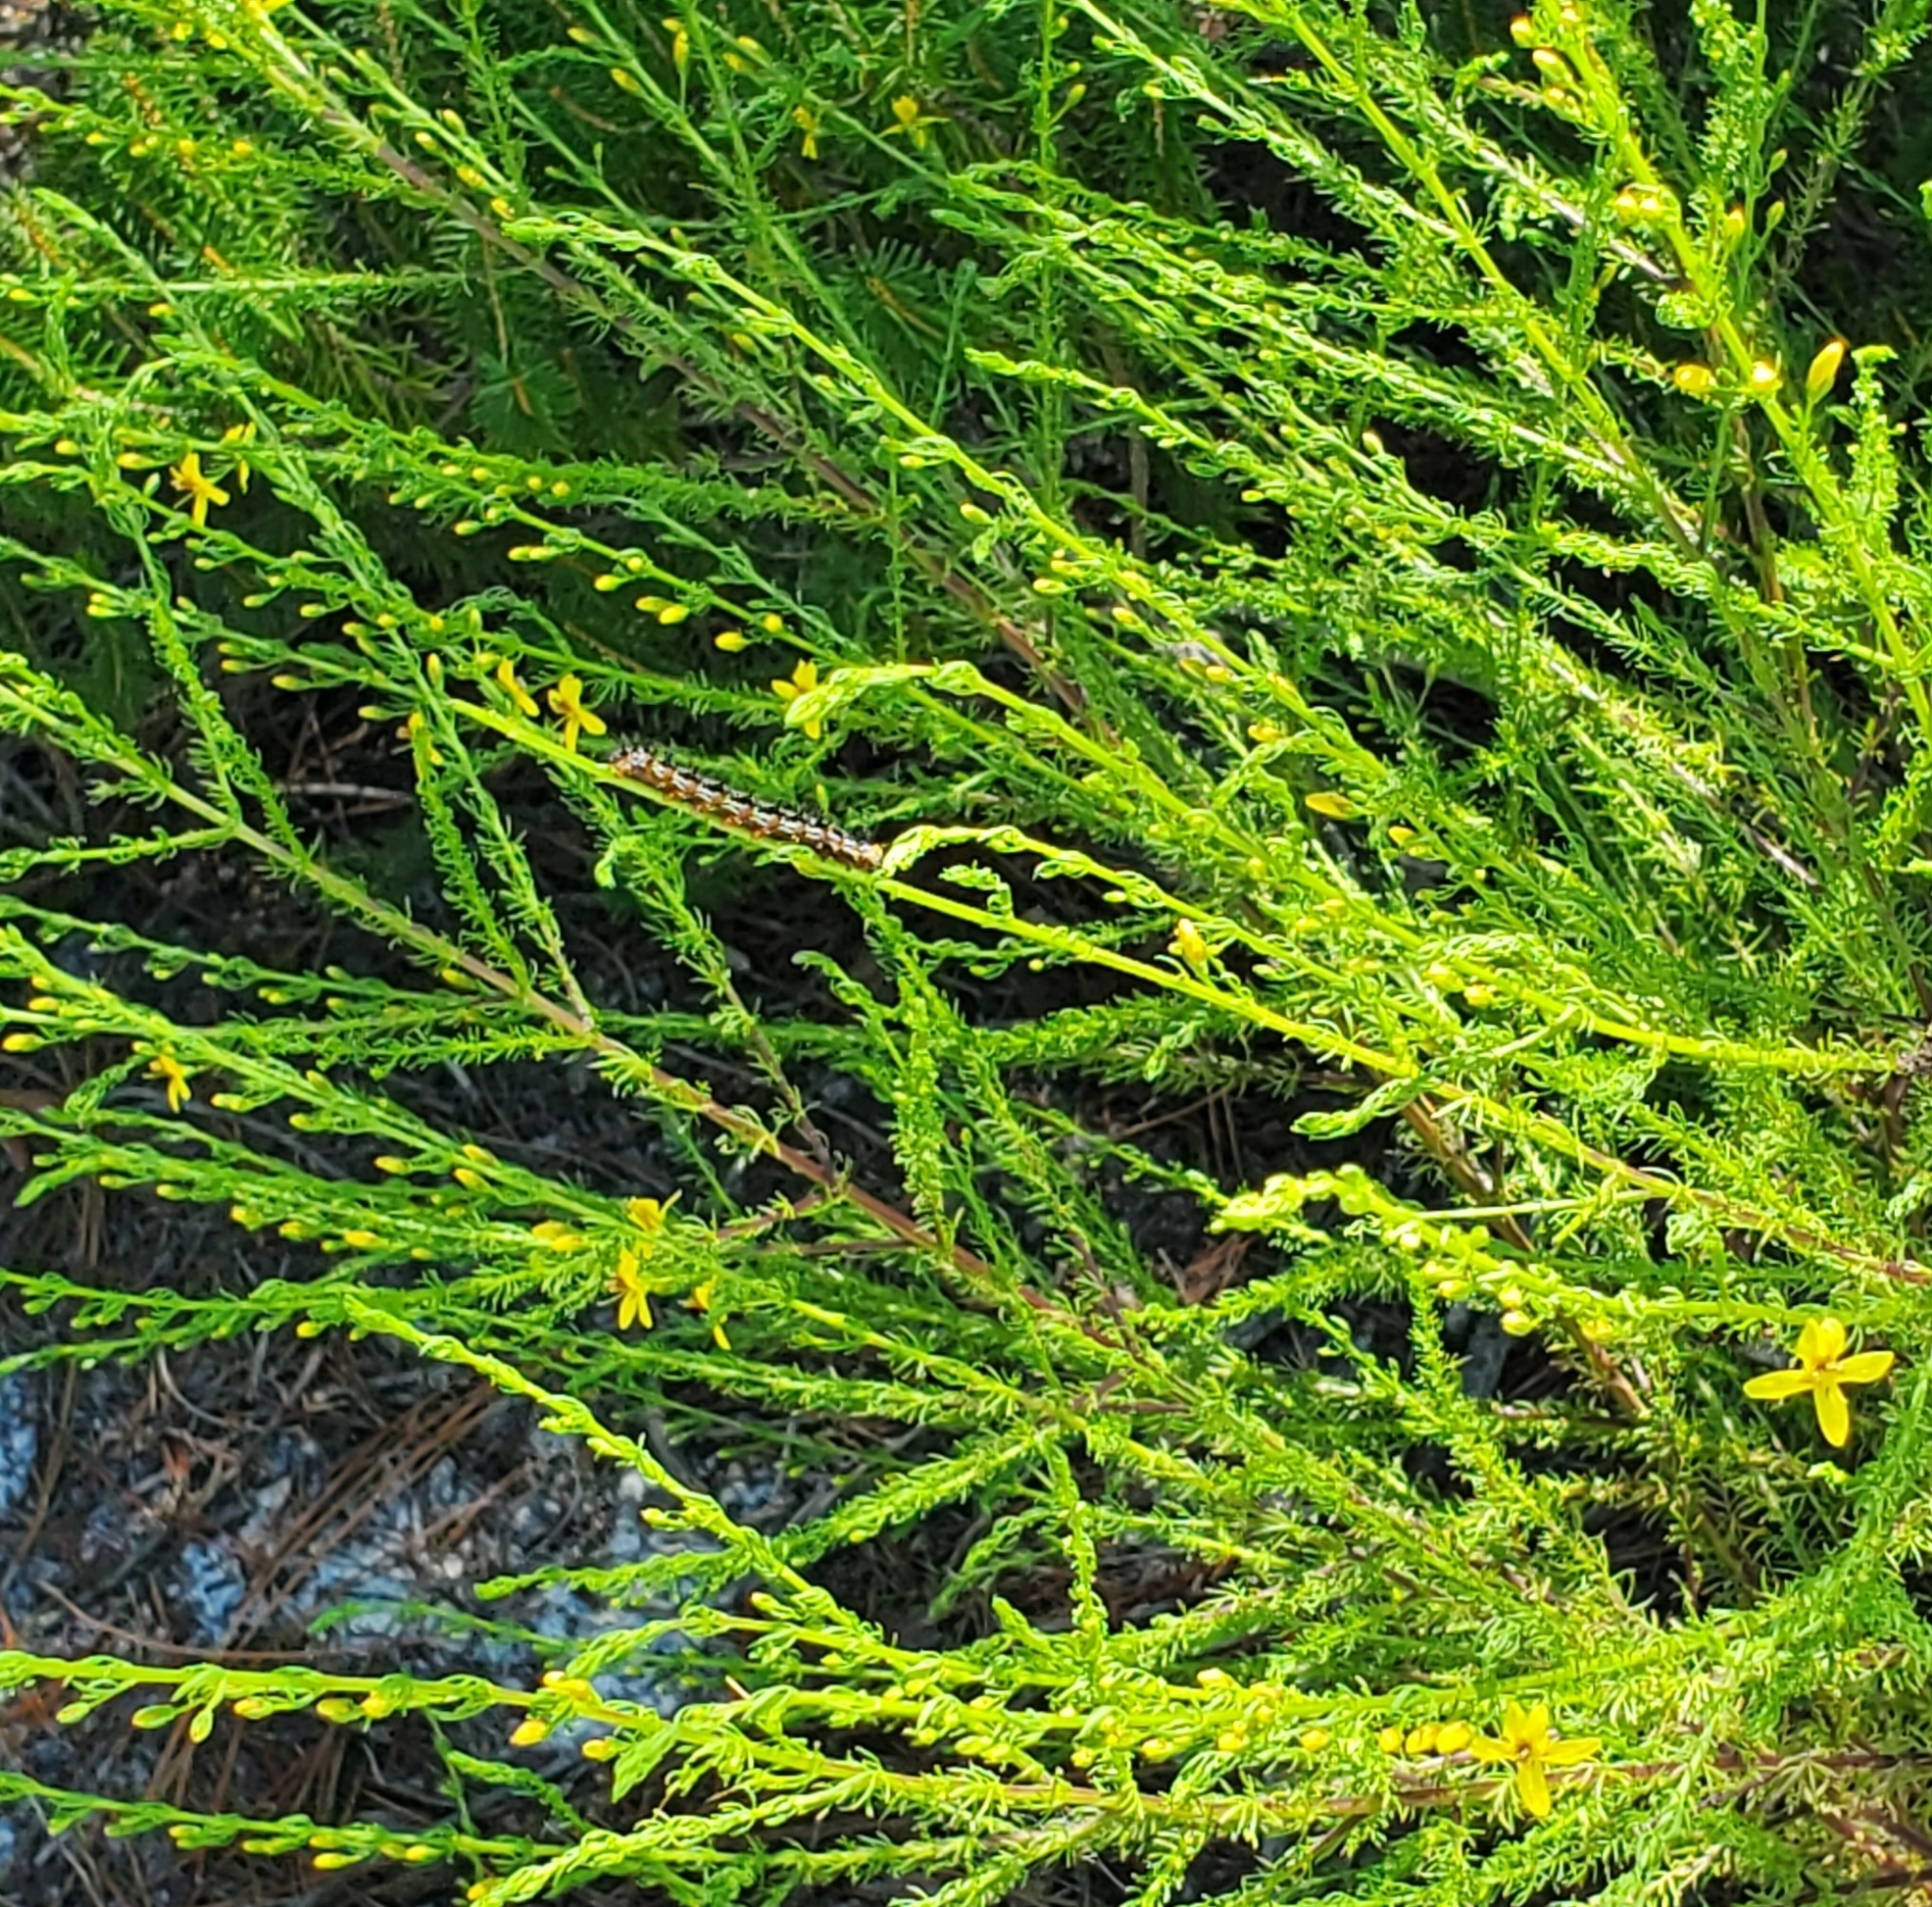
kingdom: Animalia
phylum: Arthropoda
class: Insecta
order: Lepidoptera
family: Nymphalidae
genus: Junonia
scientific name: Junonia coenia
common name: Common buckeye
